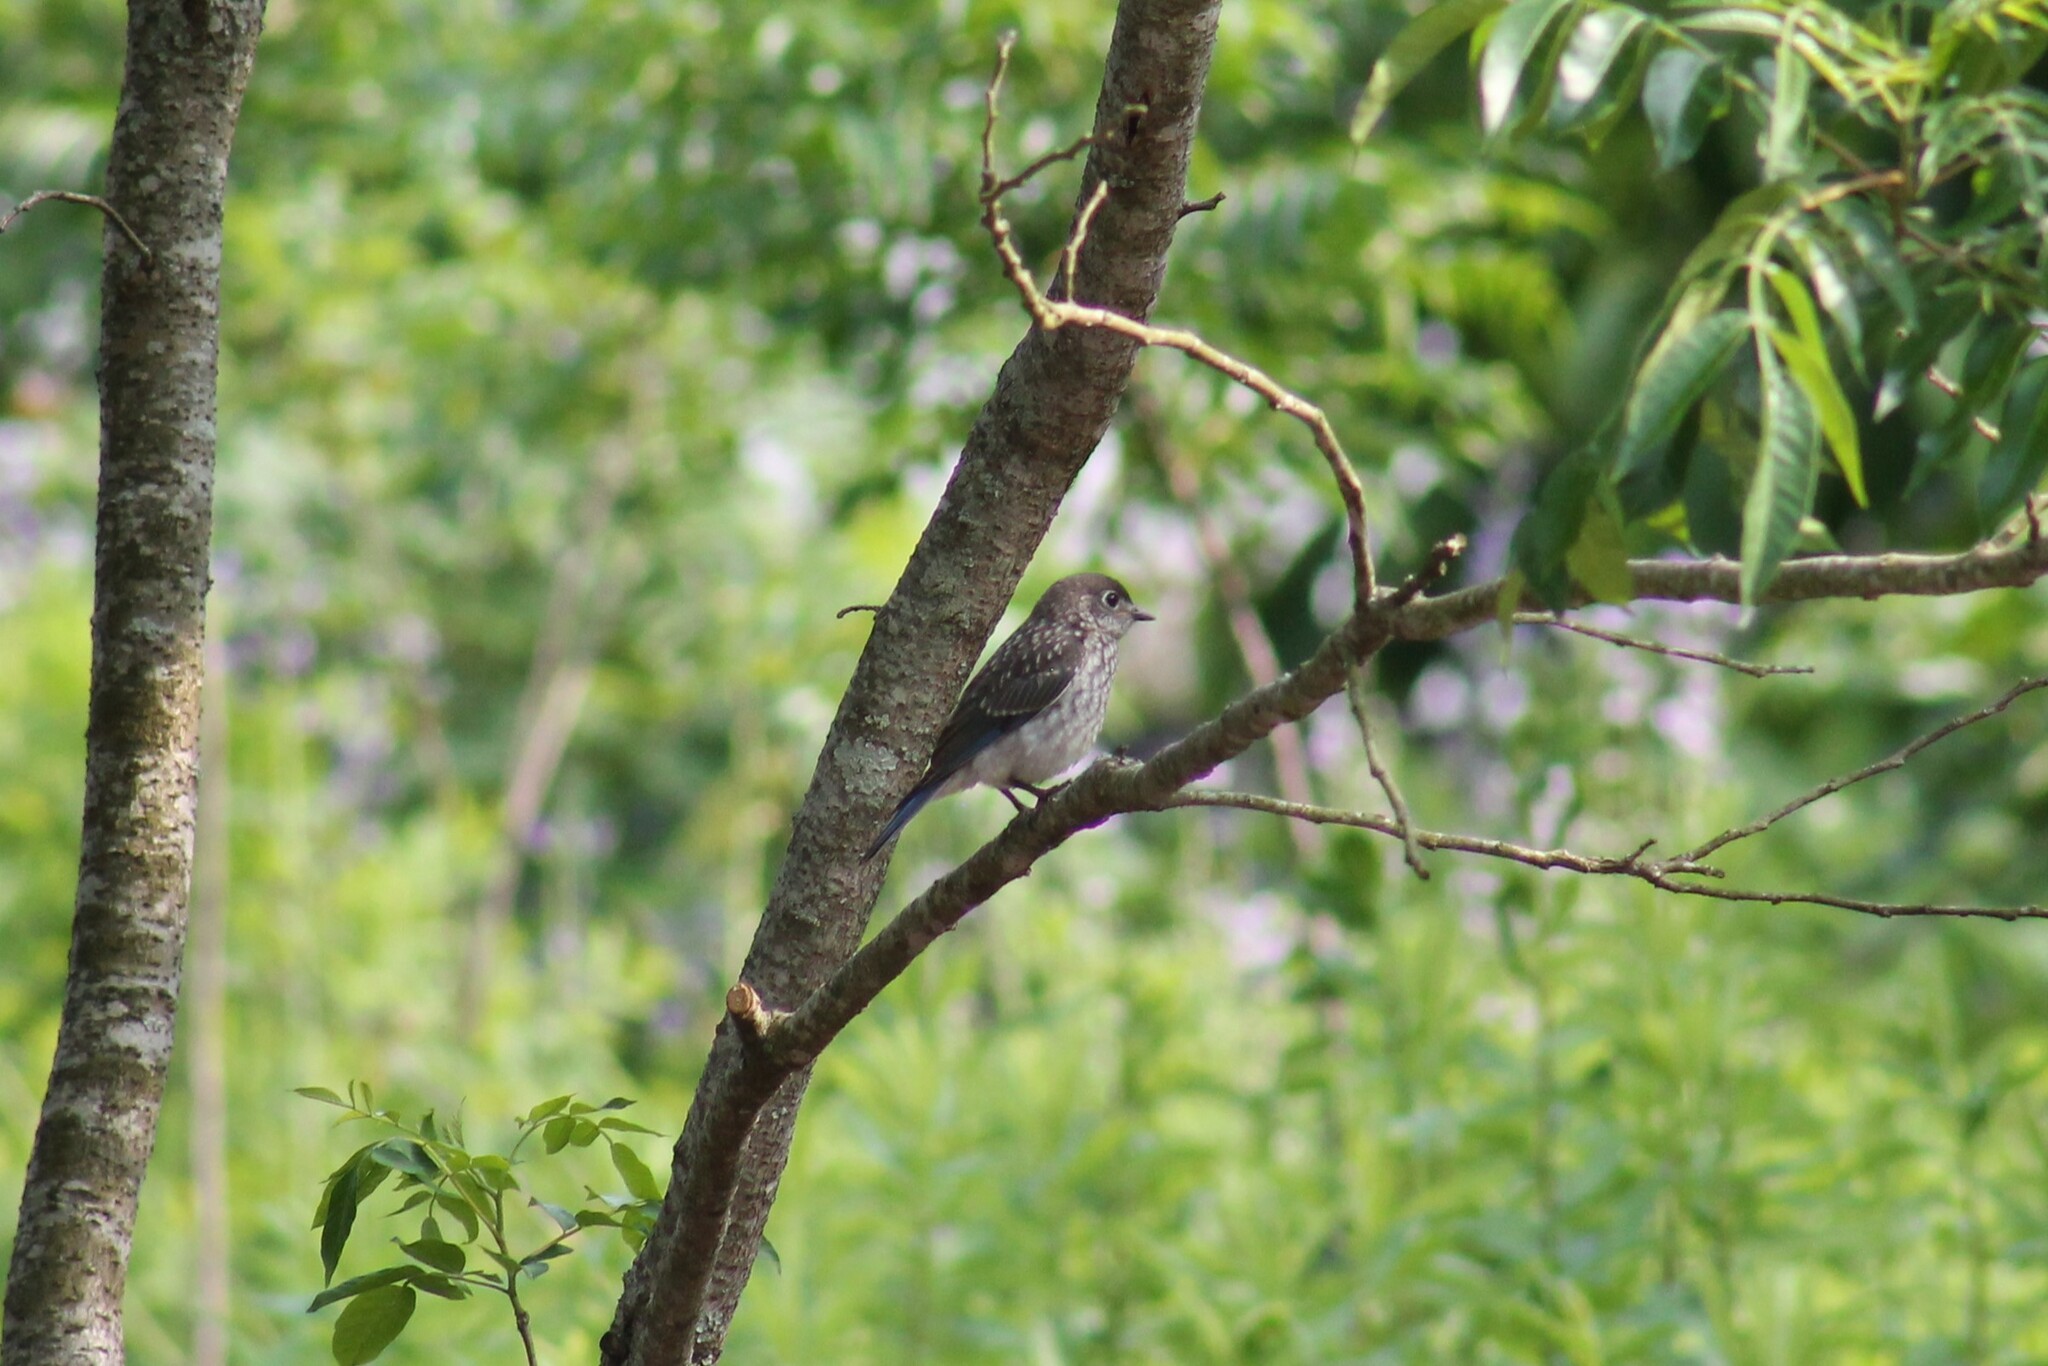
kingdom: Animalia
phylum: Chordata
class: Aves
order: Passeriformes
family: Turdidae
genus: Sialia
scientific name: Sialia sialis
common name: Eastern bluebird
